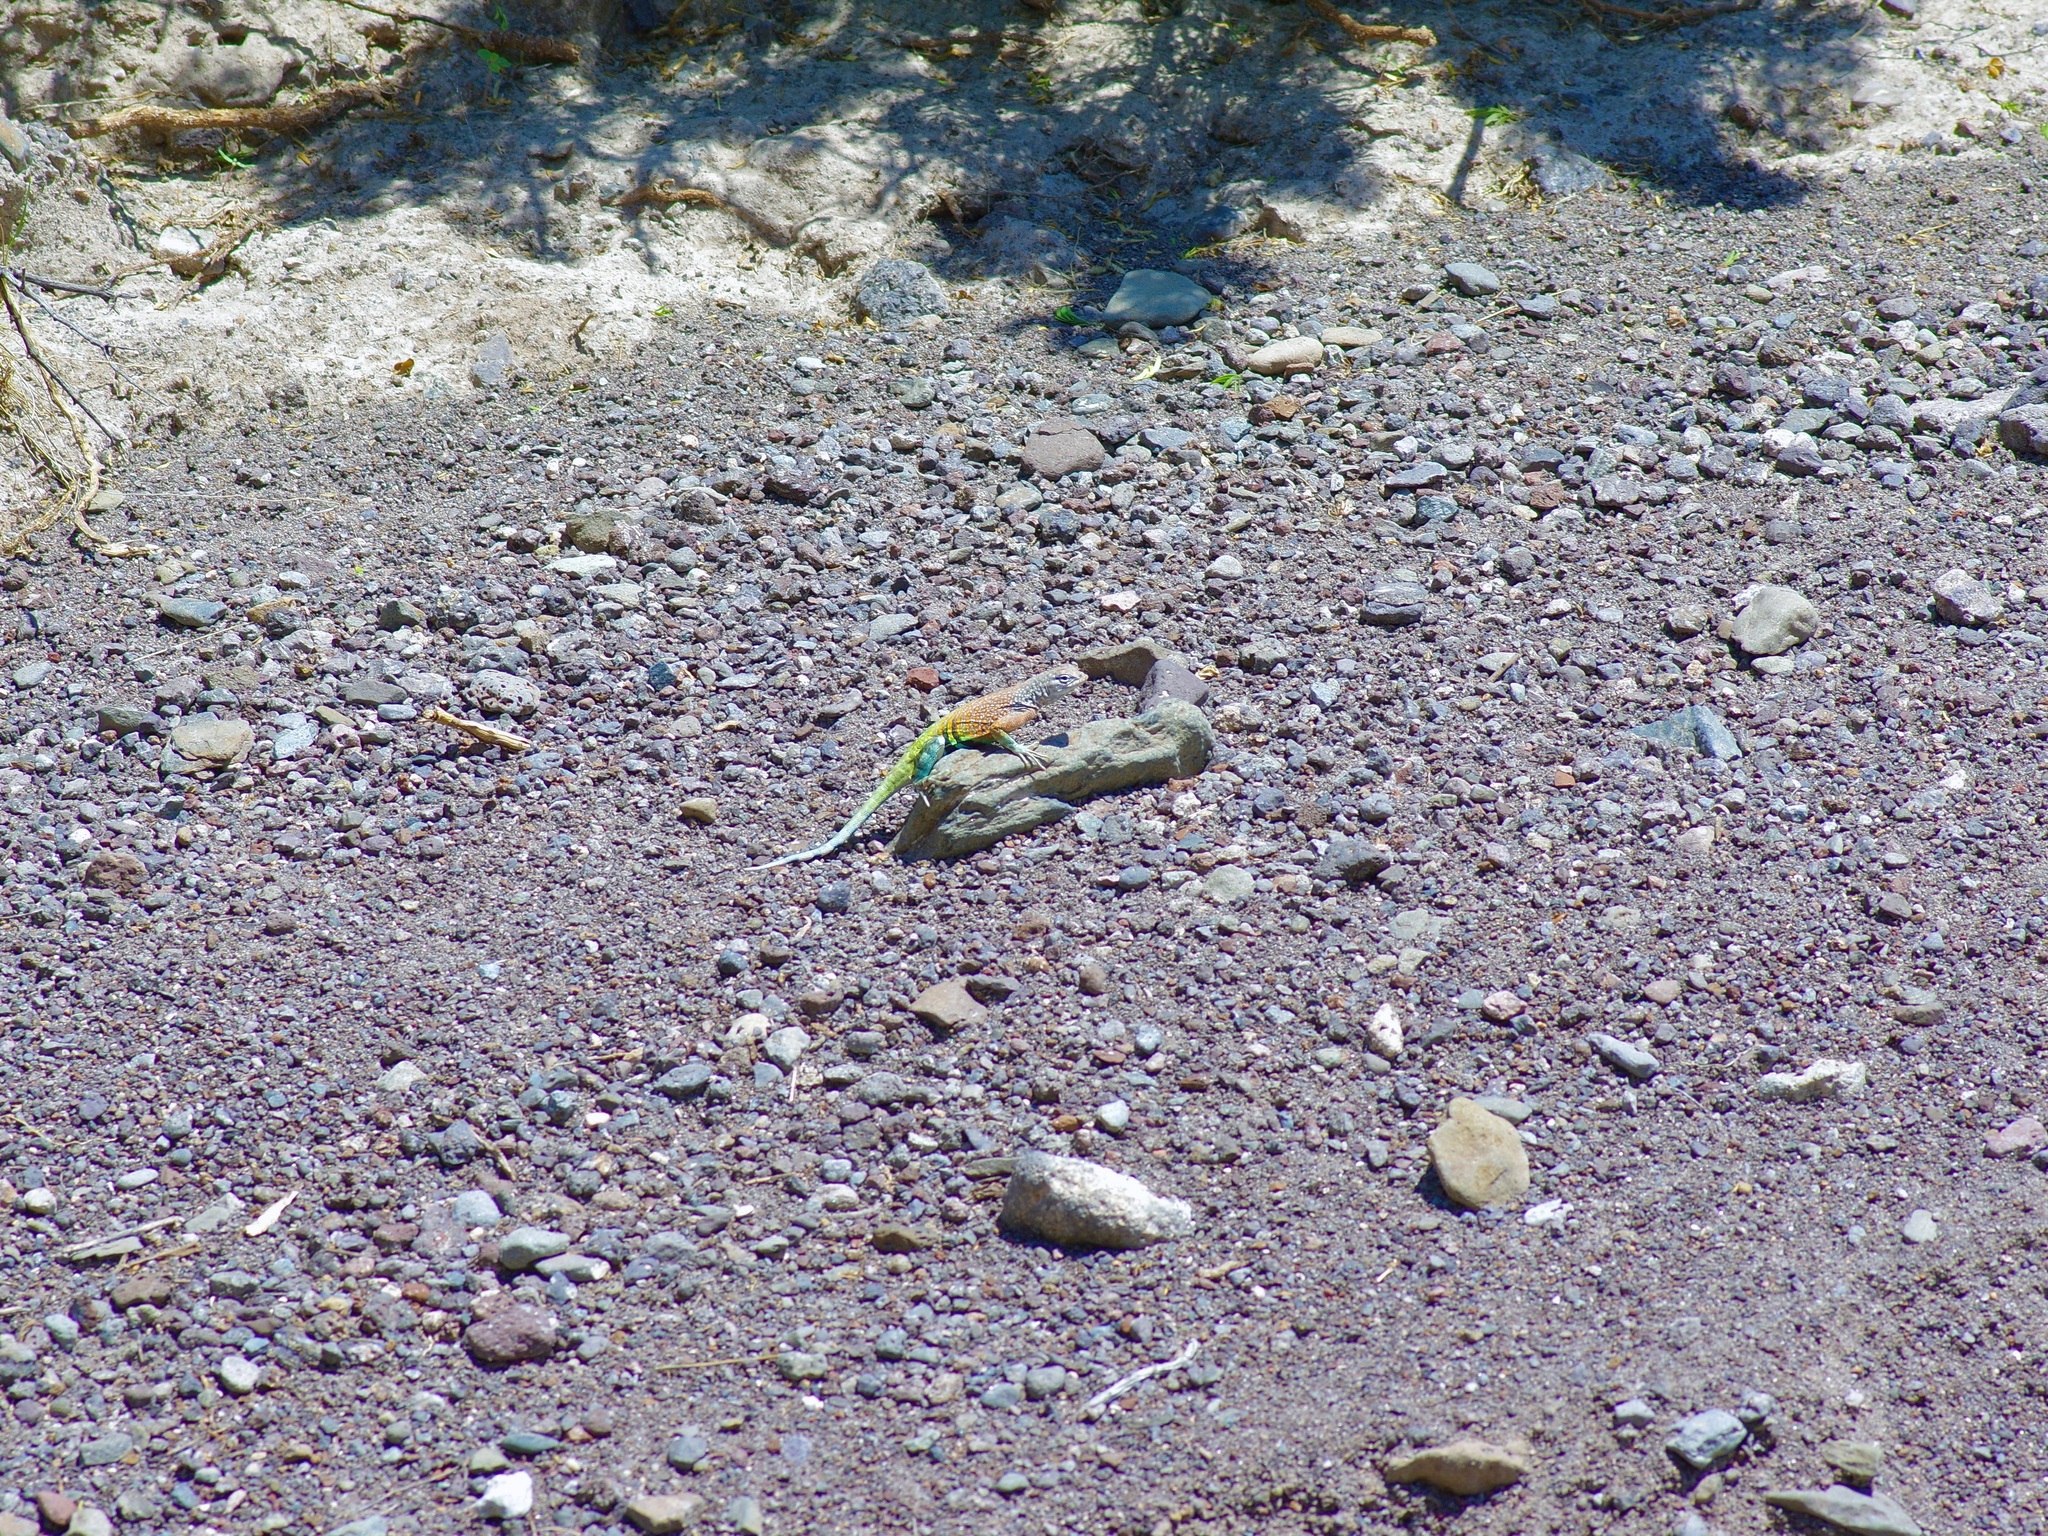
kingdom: Animalia
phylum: Chordata
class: Squamata
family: Phrynosomatidae
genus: Cophosaurus
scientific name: Cophosaurus texanus
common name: Greater earless lizard
